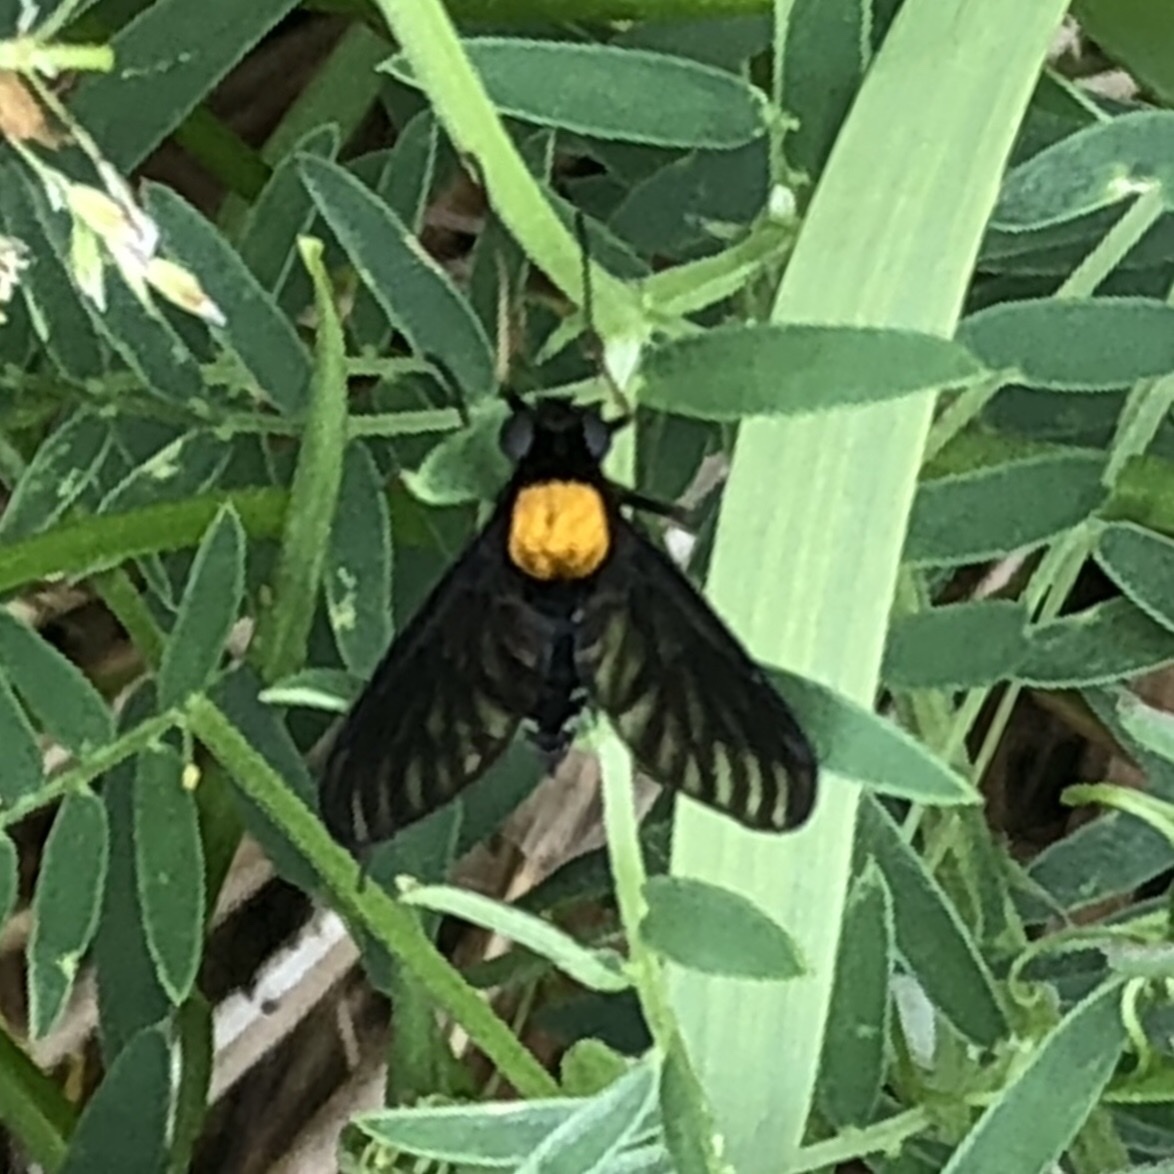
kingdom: Animalia
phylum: Arthropoda
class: Insecta
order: Diptera
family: Rhagionidae
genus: Chrysopilus
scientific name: Chrysopilus thoracicus
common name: Golden-backed snipe fly
